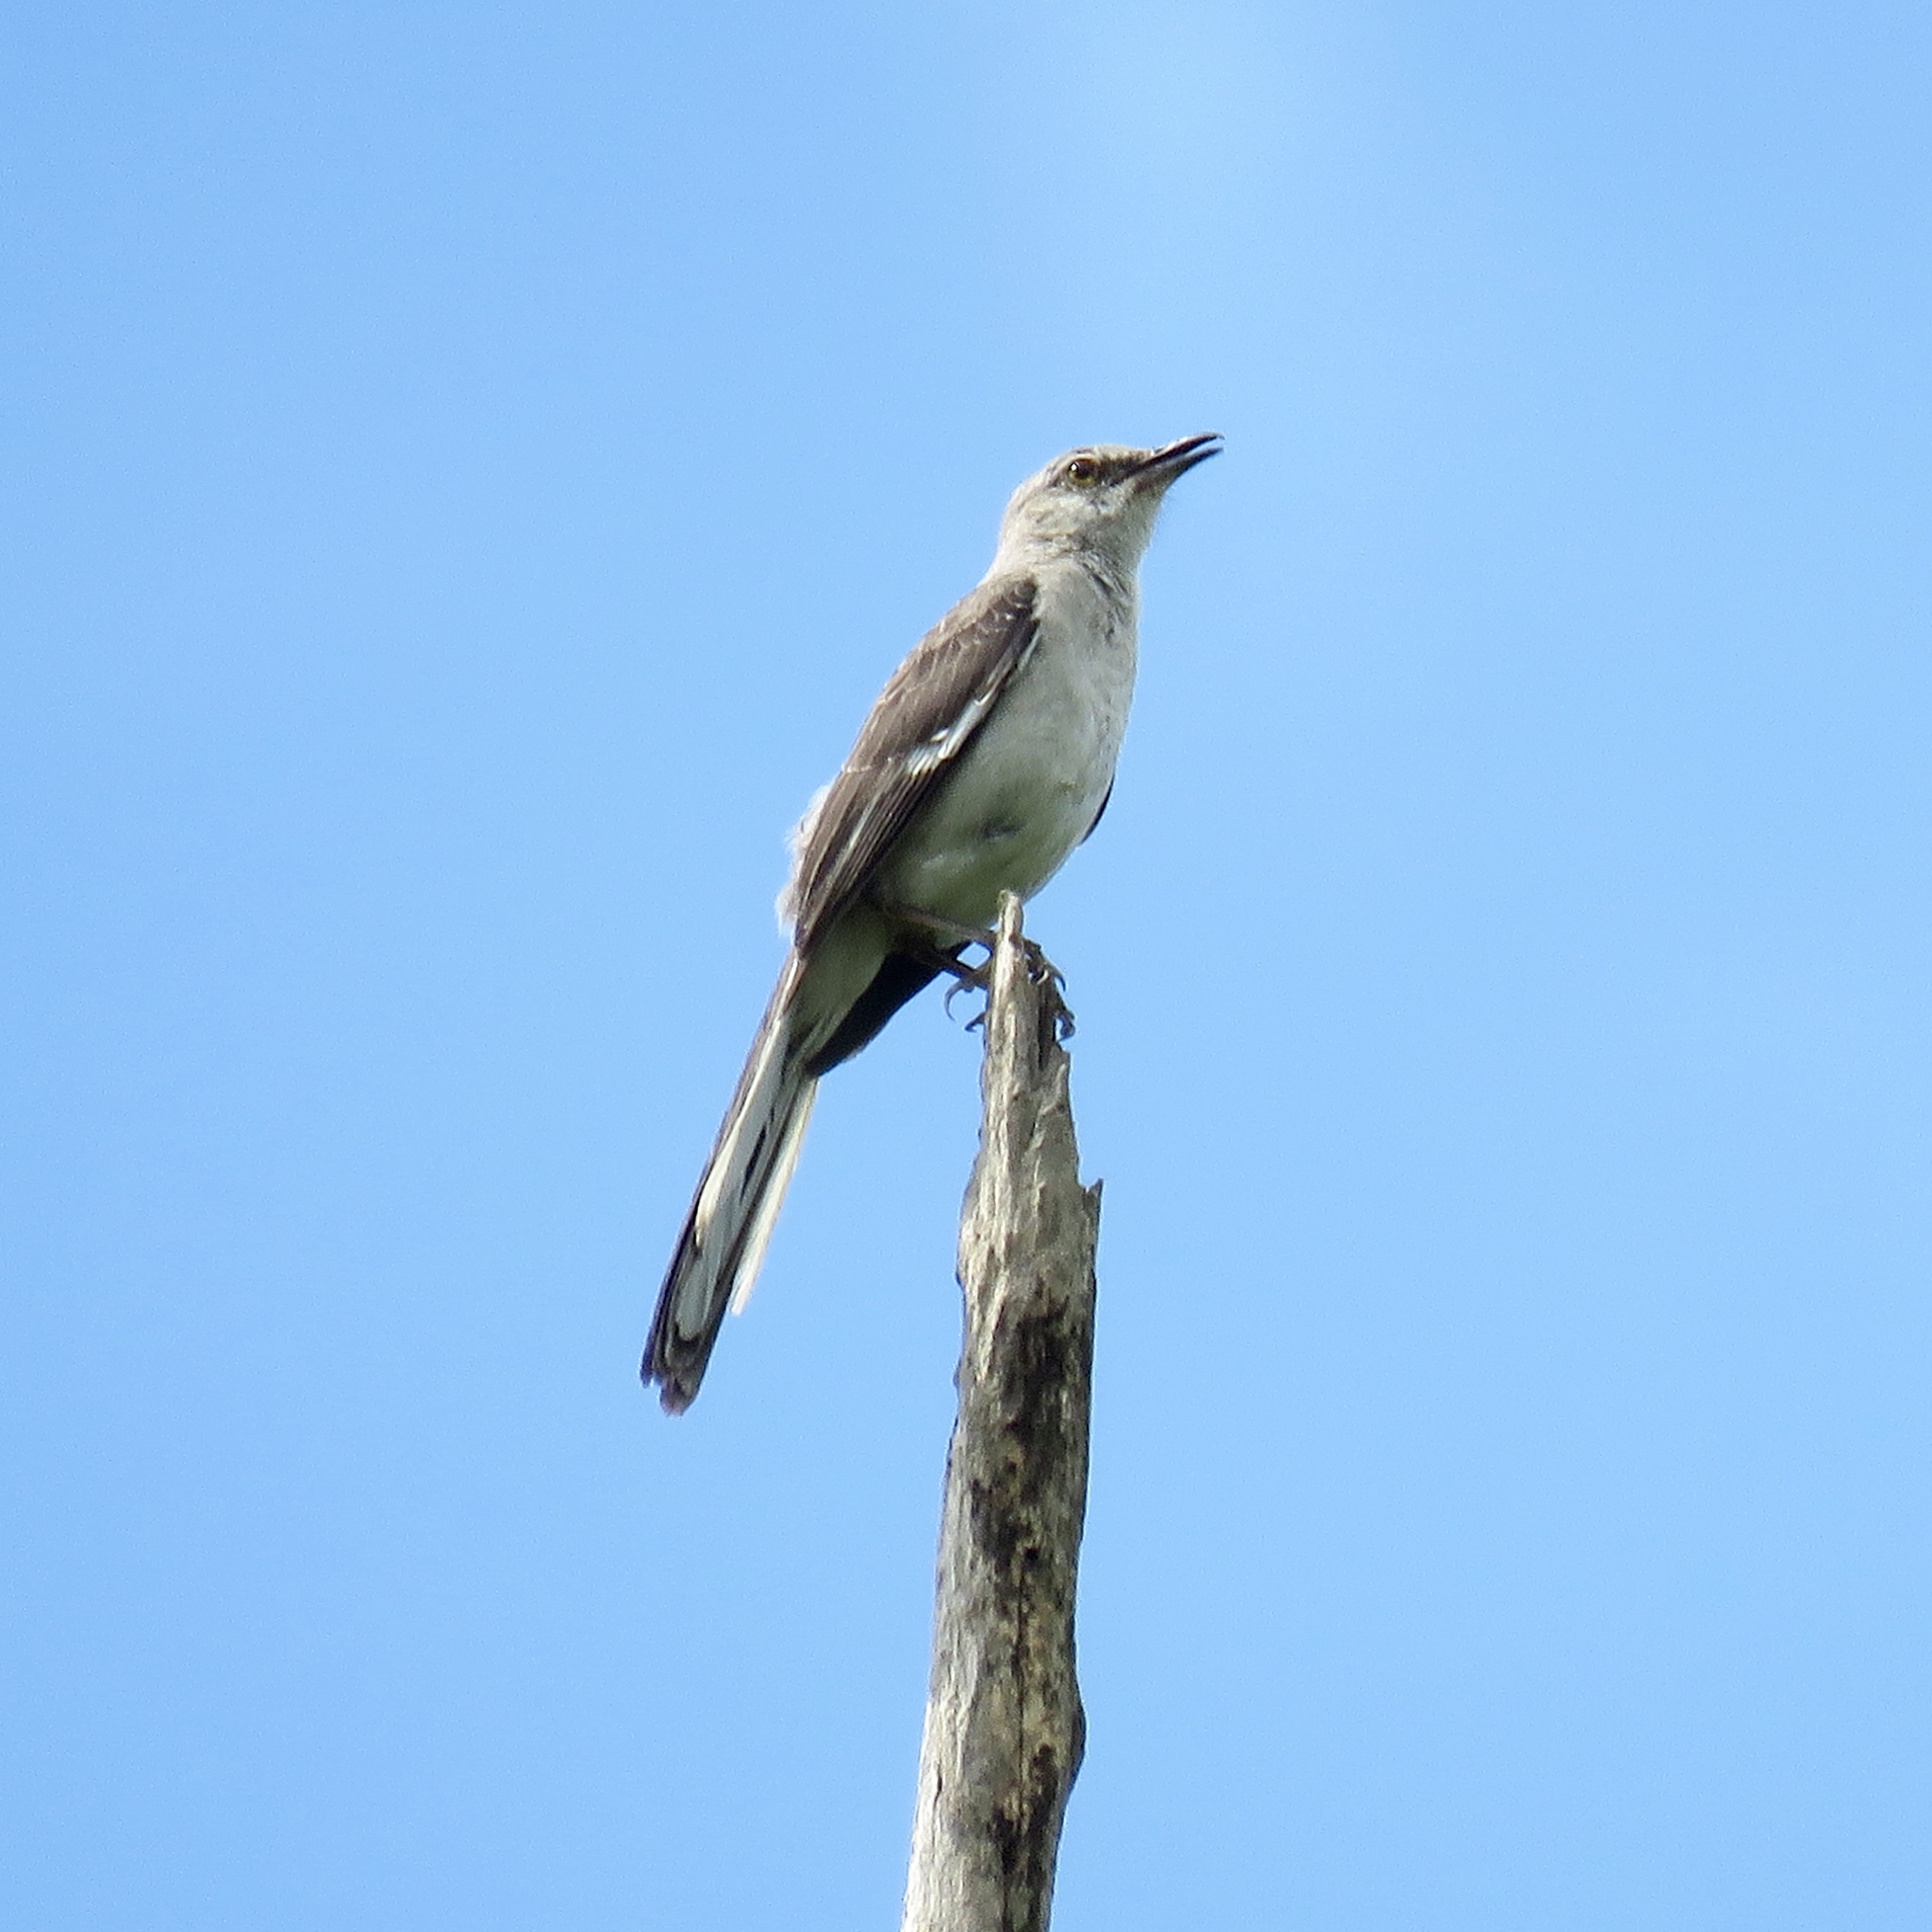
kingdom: Animalia
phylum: Chordata
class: Aves
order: Passeriformes
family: Mimidae
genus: Mimus
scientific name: Mimus polyglottos
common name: Northern mockingbird
